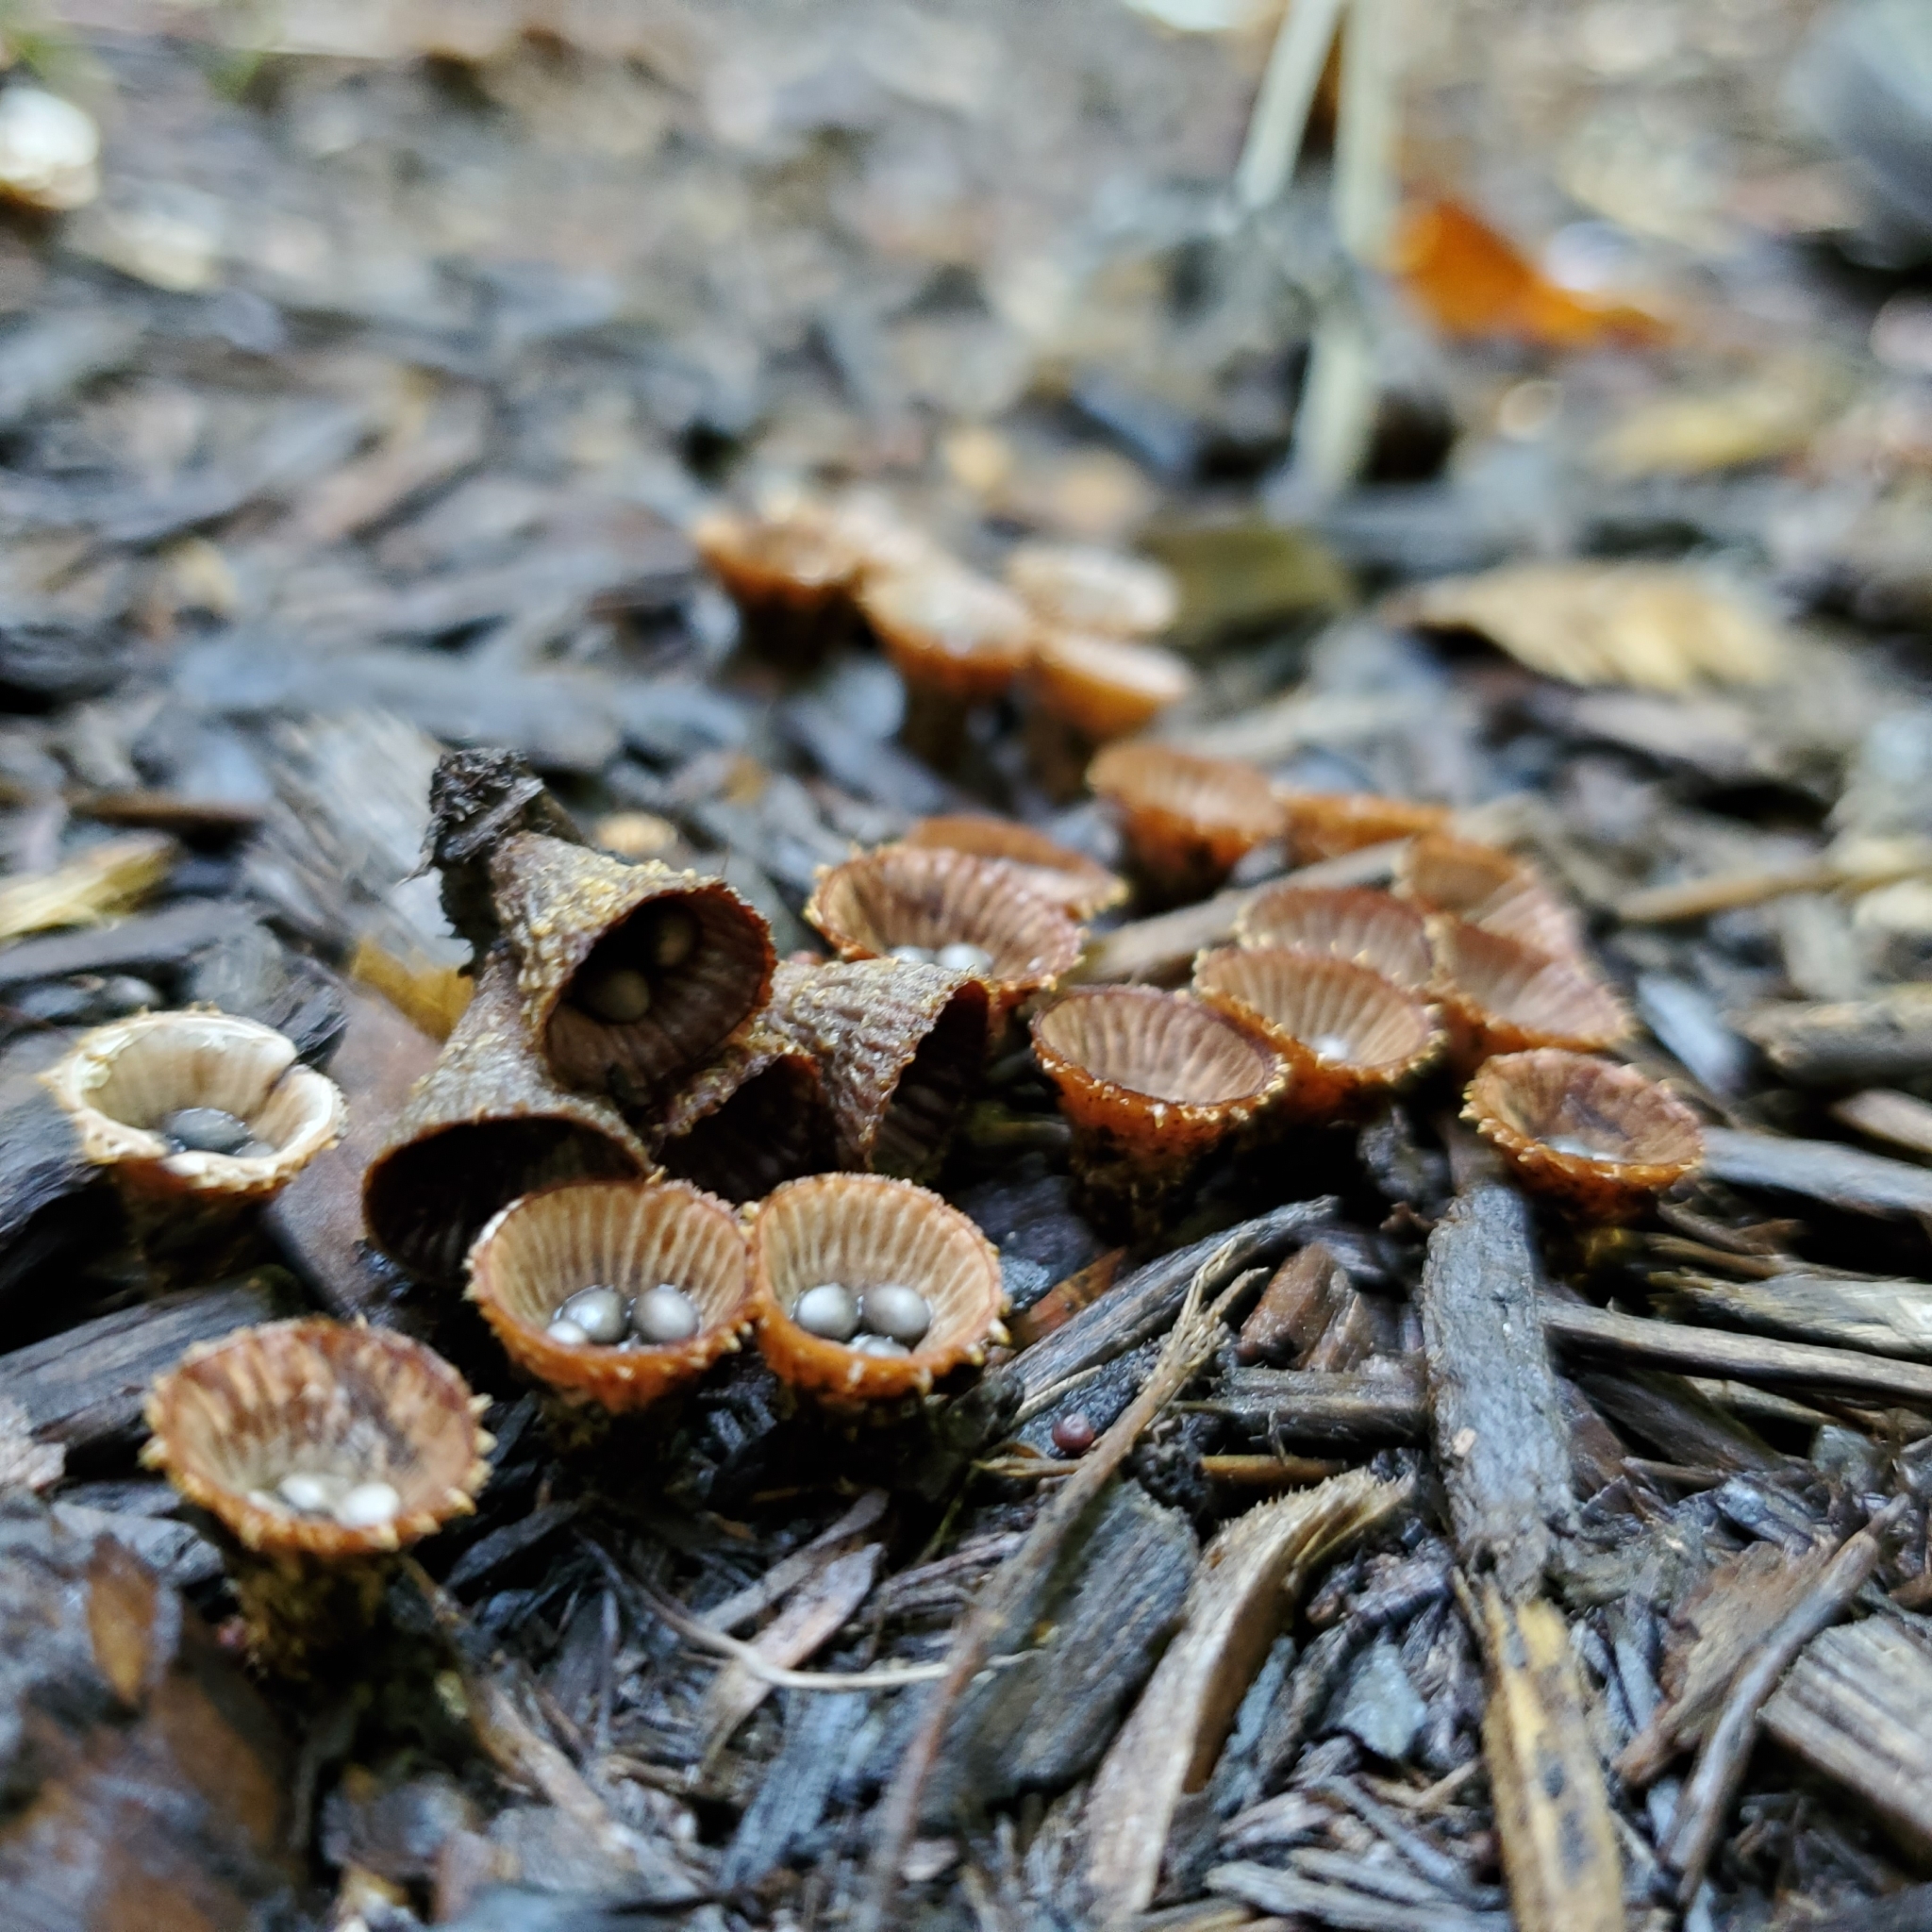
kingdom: Fungi
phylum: Basidiomycota
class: Agaricomycetes
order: Agaricales
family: Agaricaceae
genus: Cyathus
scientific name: Cyathus striatus
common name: Fluted bird's nest
